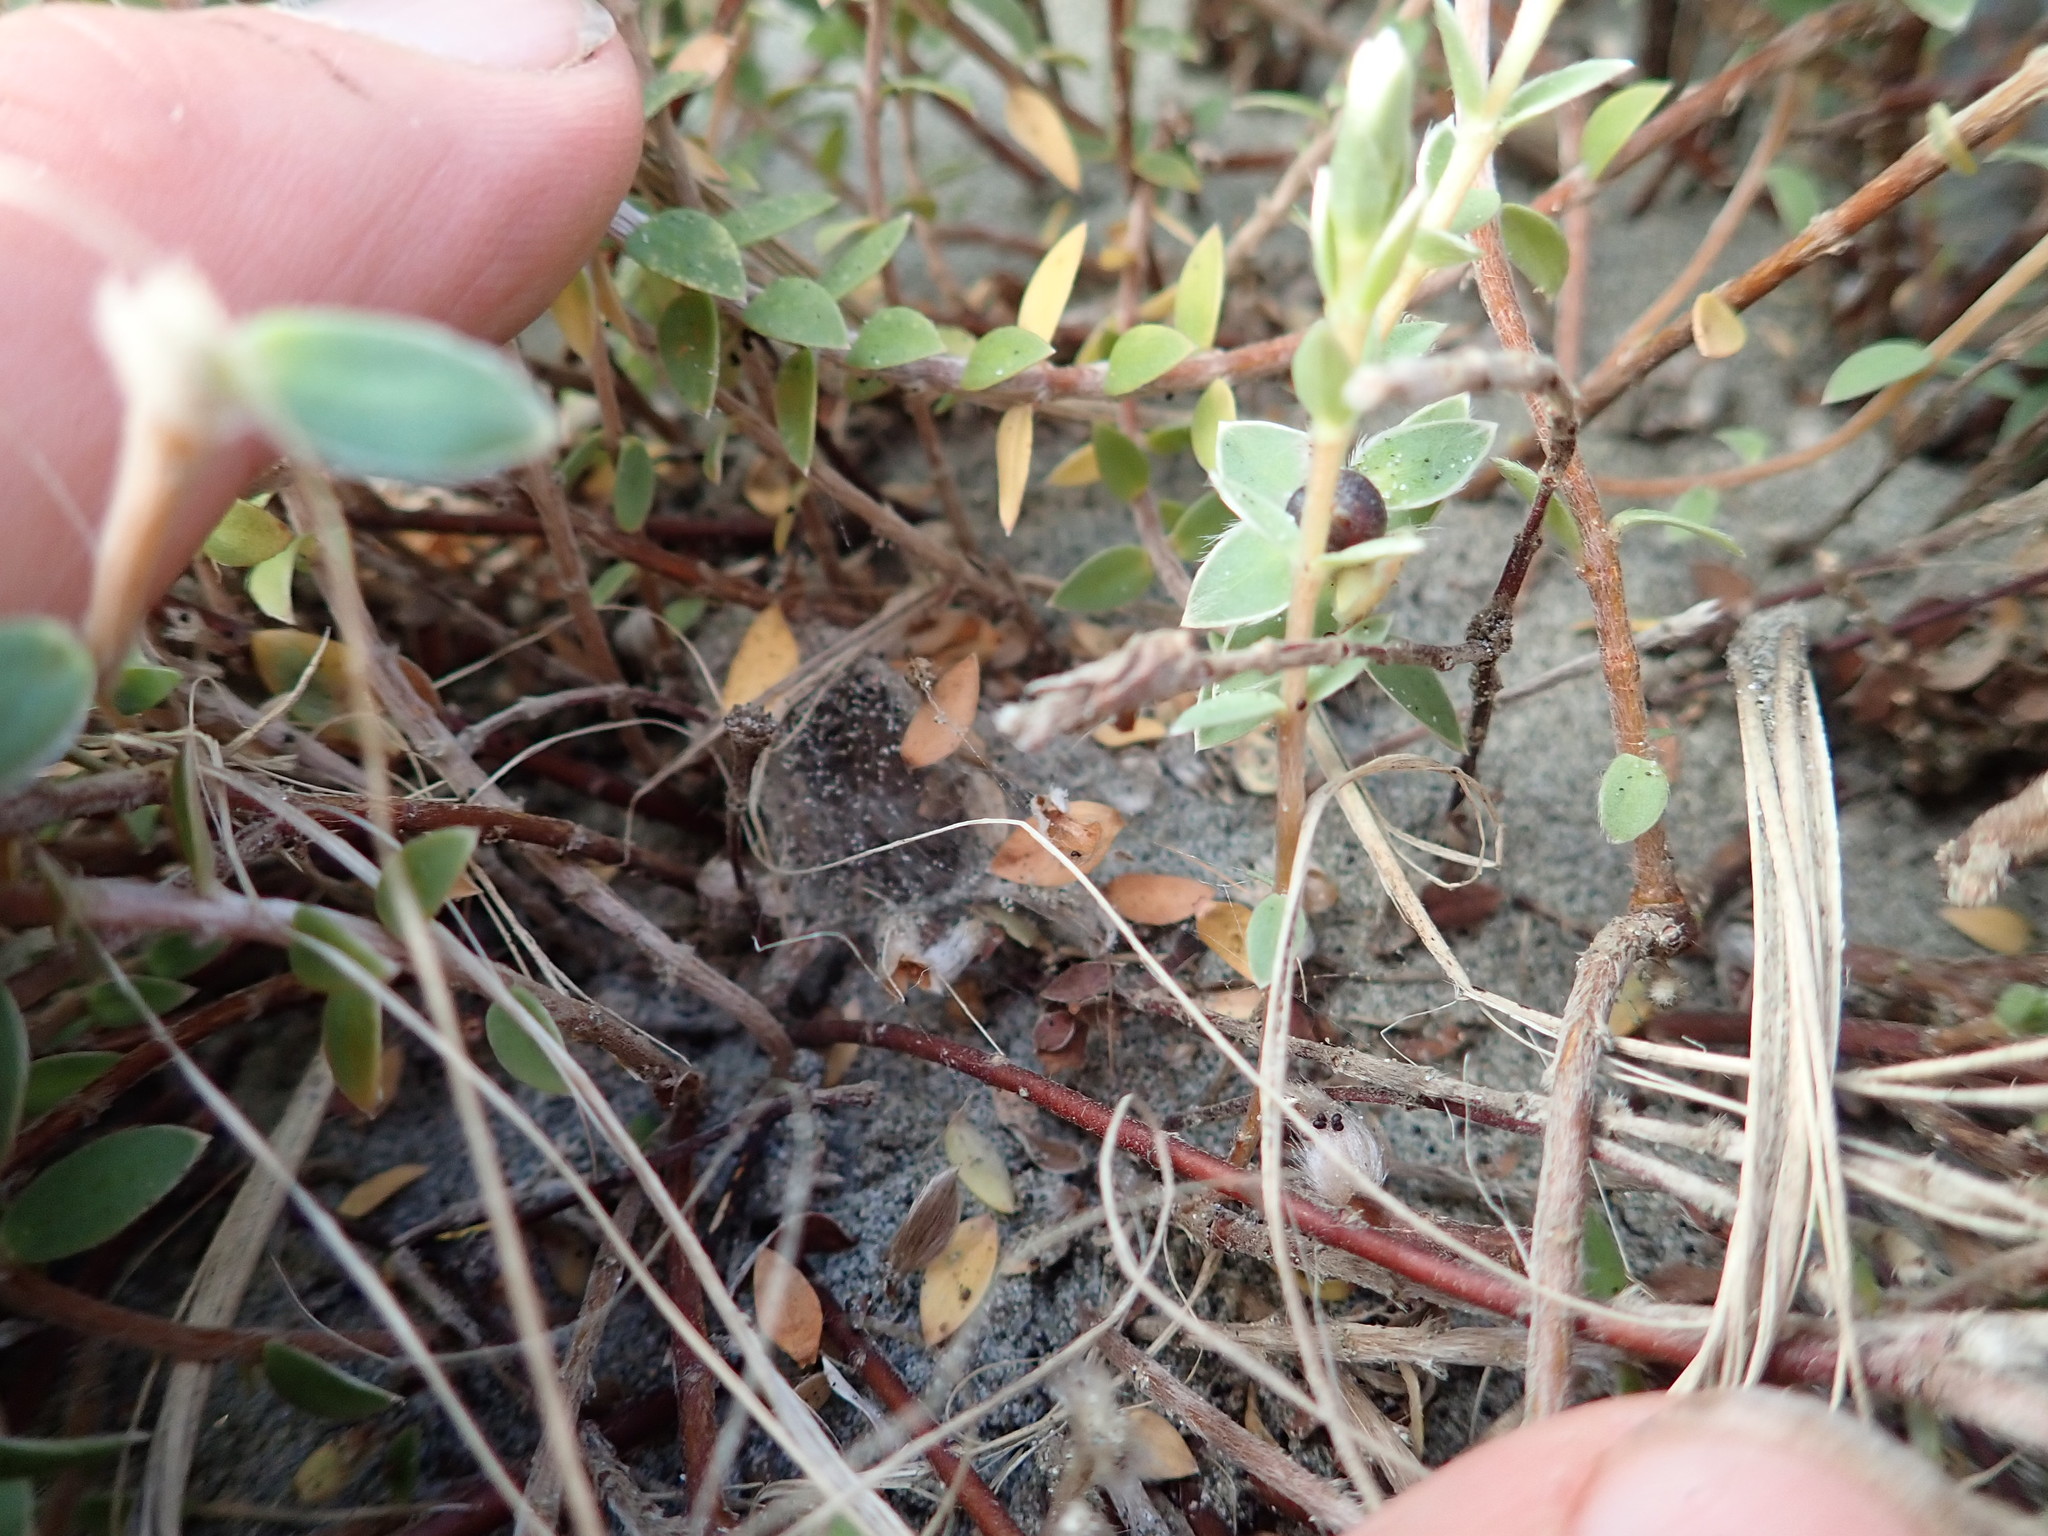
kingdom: Plantae
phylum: Tracheophyta
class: Magnoliopsida
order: Malvales
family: Thymelaeaceae
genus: Pimelea
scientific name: Pimelea villosa
